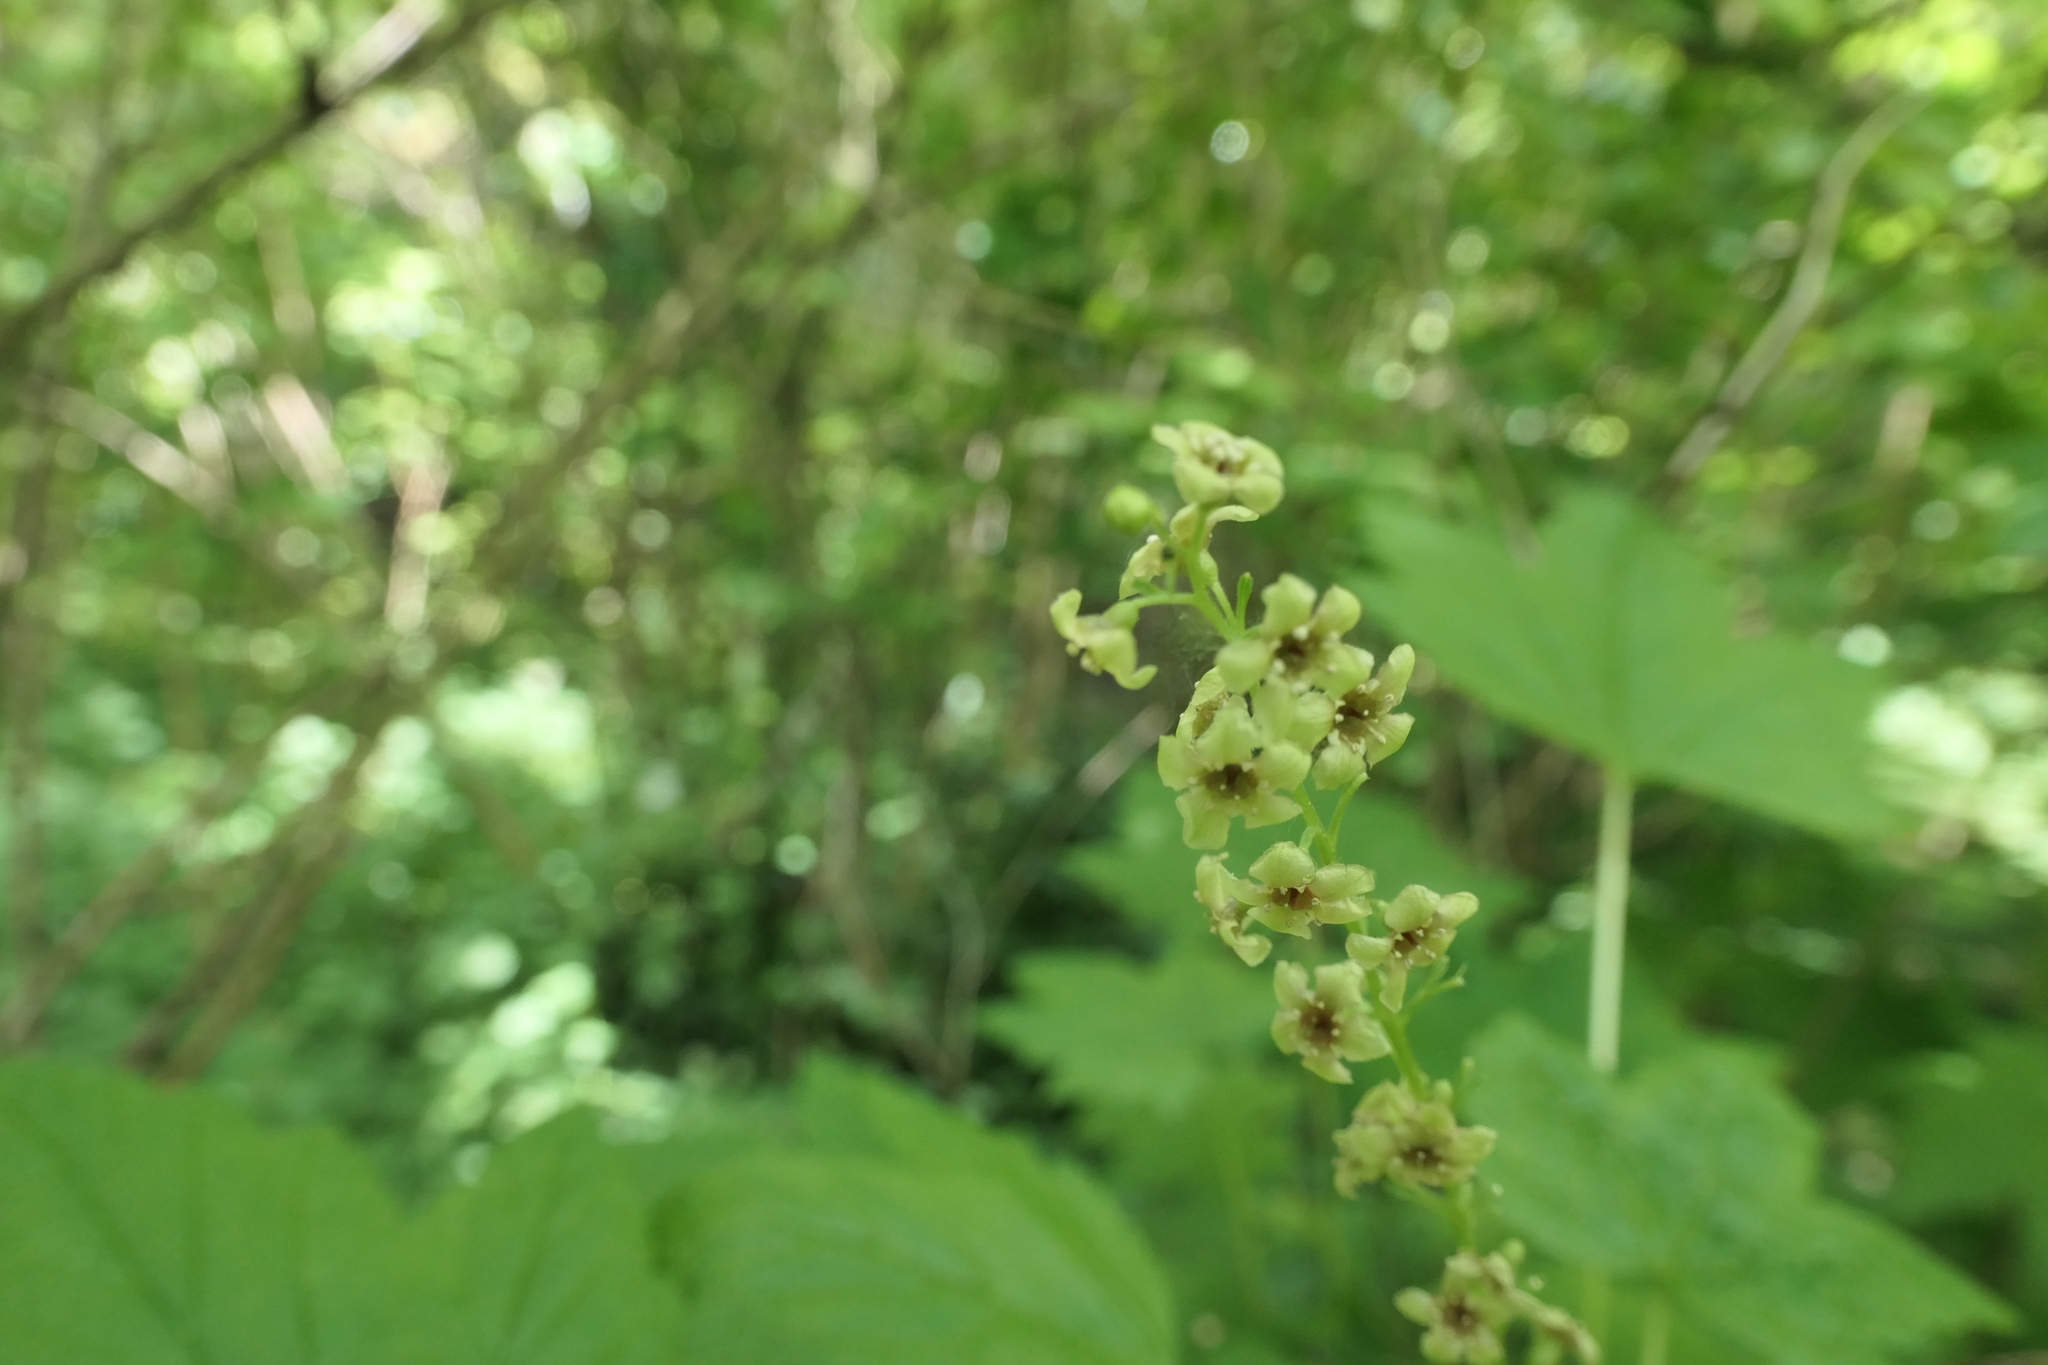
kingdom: Plantae
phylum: Tracheophyta
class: Magnoliopsida
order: Saxifragales
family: Grossulariaceae
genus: Ribes
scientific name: Ribes bracteosum
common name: California black currant
